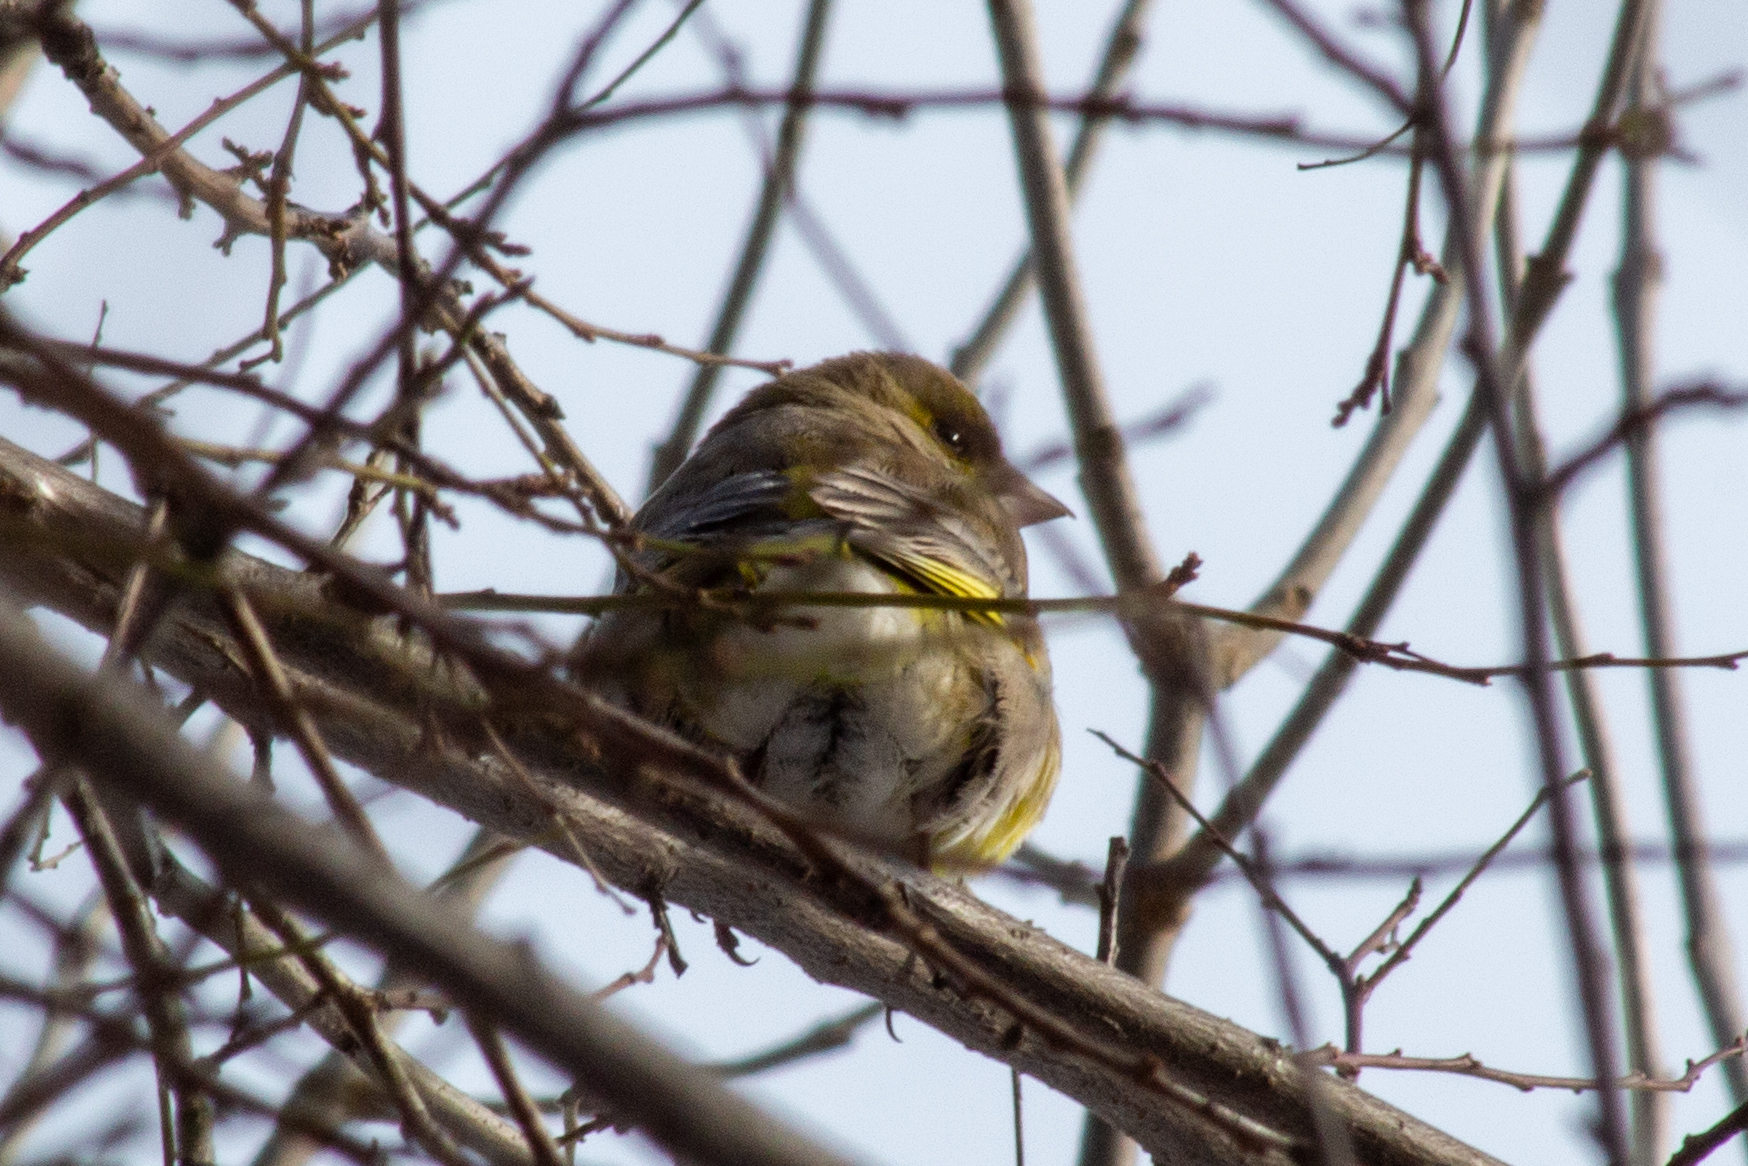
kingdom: Plantae
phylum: Tracheophyta
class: Liliopsida
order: Poales
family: Poaceae
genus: Chloris
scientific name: Chloris chloris
